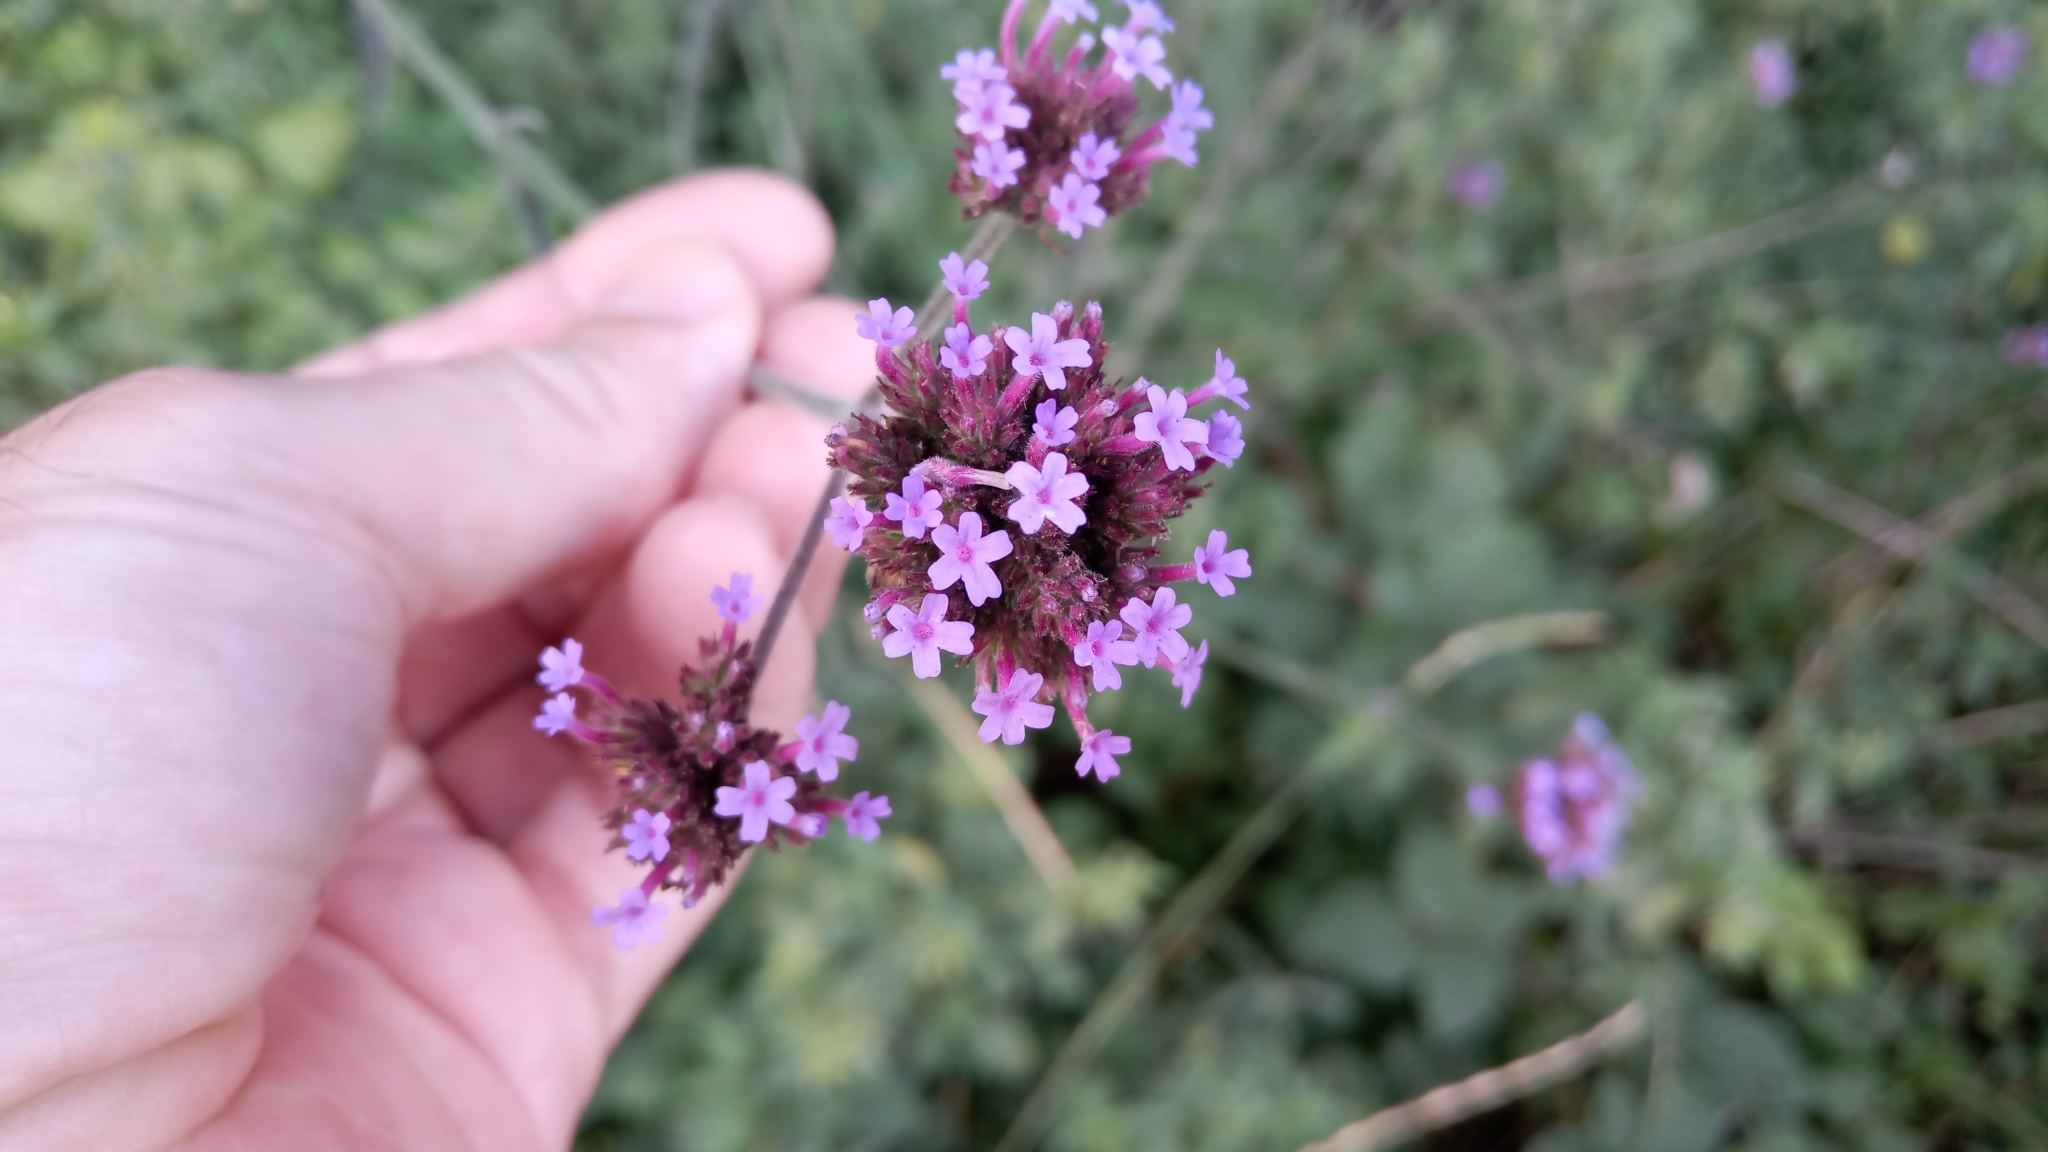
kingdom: Plantae
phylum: Tracheophyta
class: Magnoliopsida
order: Lamiales
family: Verbenaceae
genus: Verbena
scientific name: Verbena bonariensis
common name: Purpletop vervain
